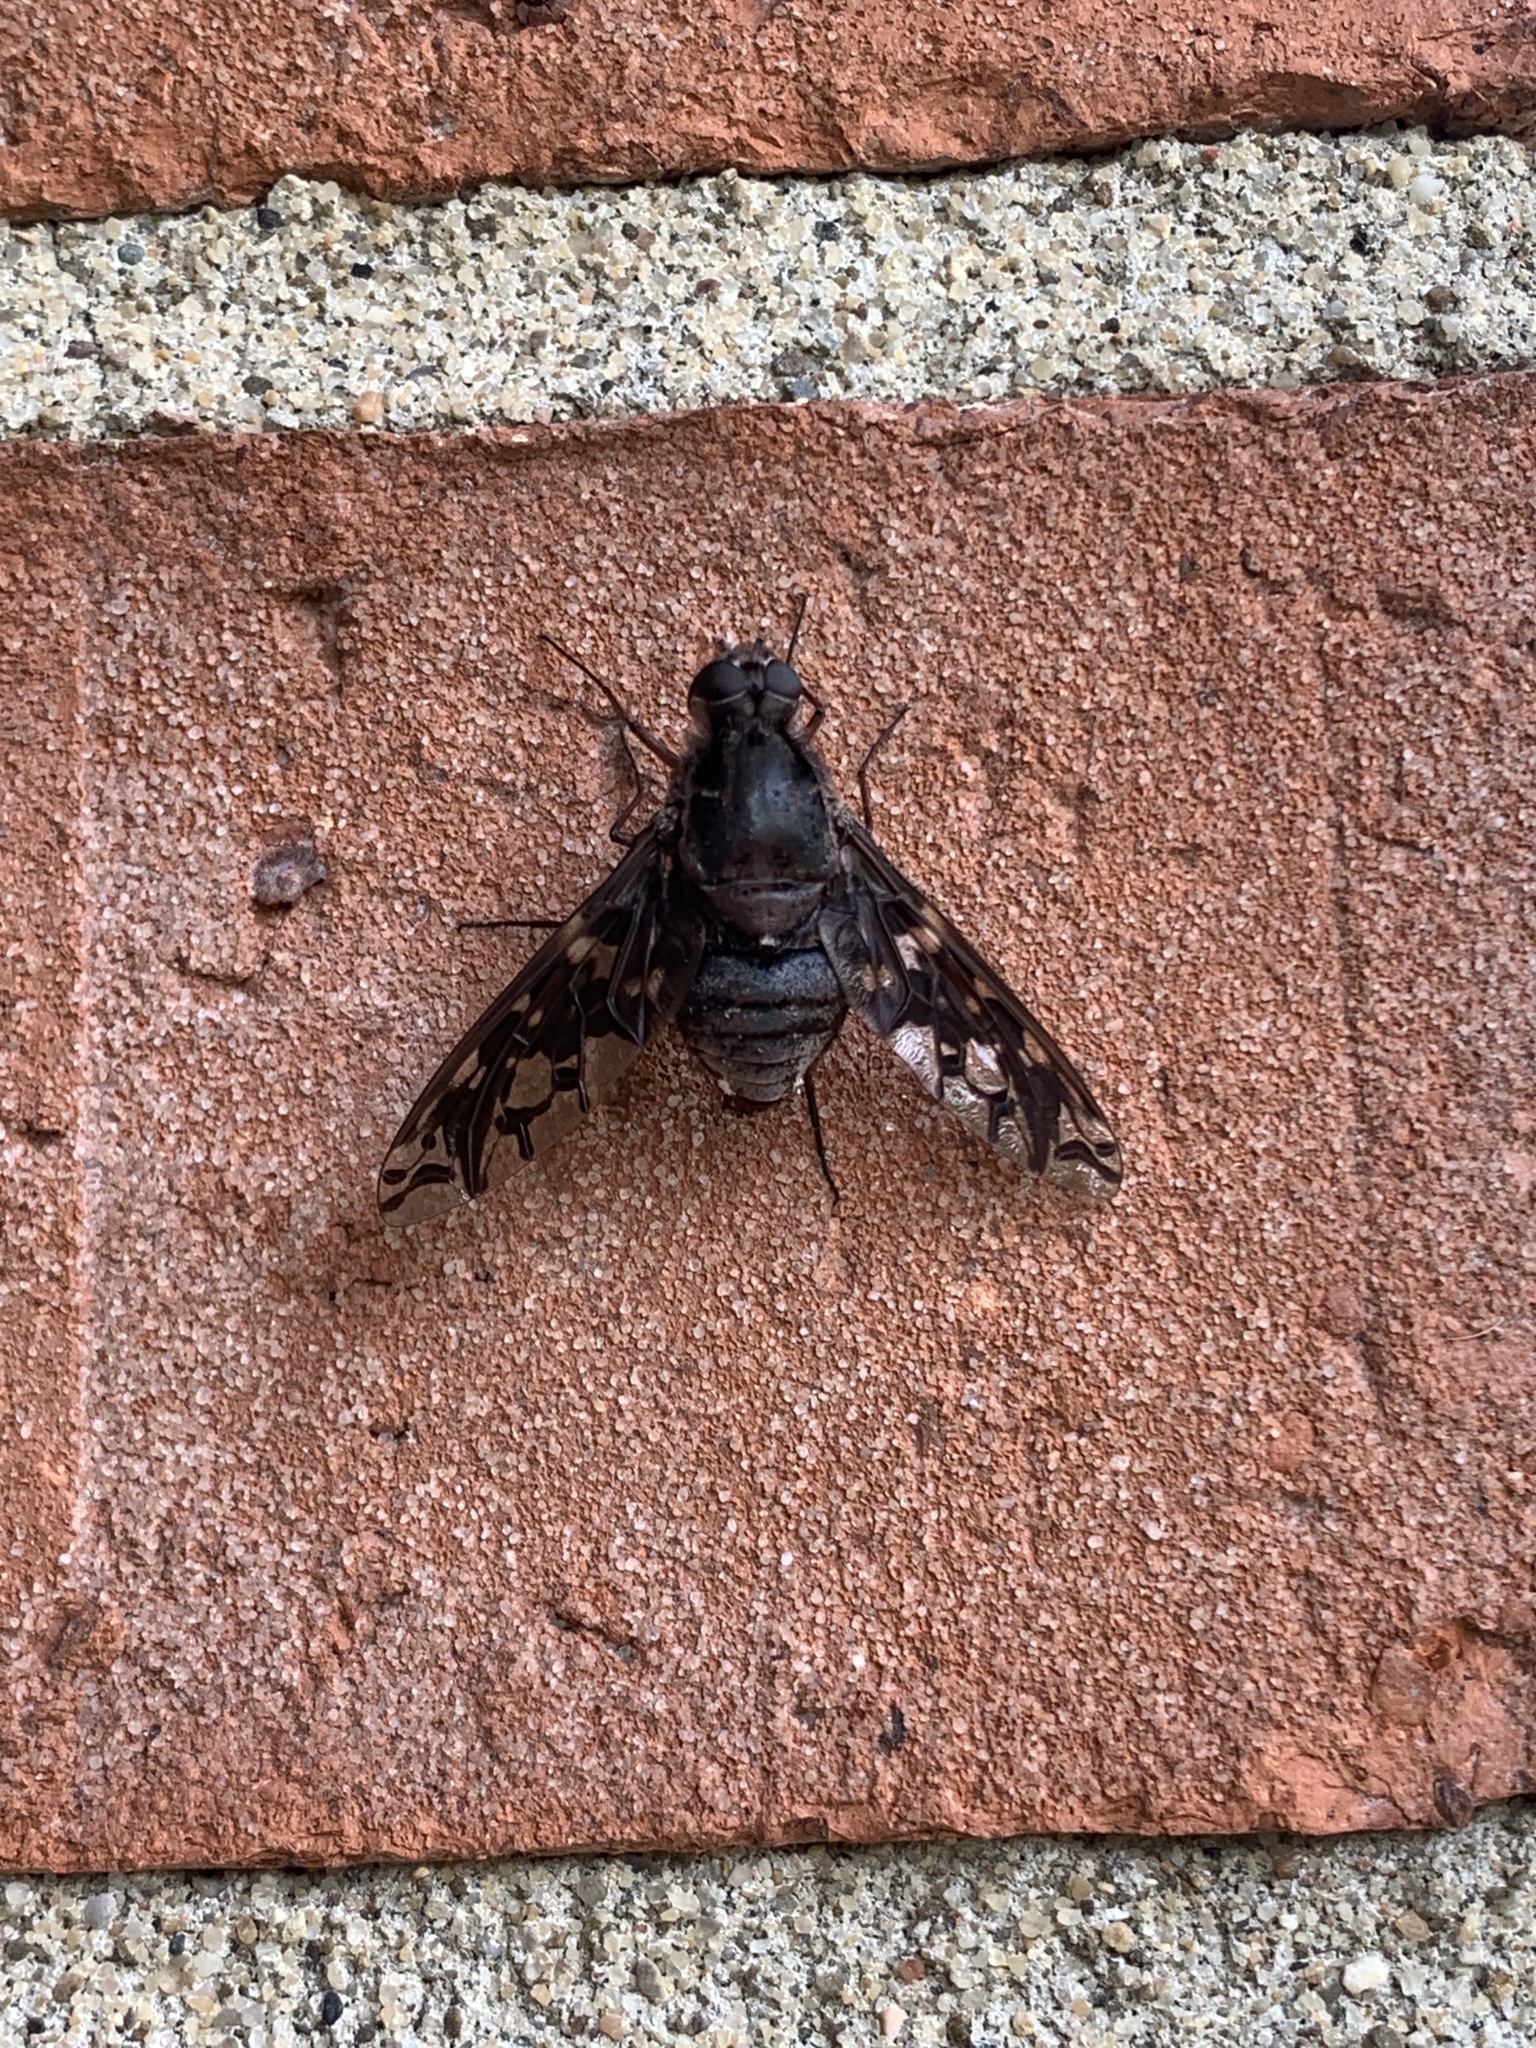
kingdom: Animalia
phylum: Arthropoda
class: Insecta
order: Diptera
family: Bombyliidae
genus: Xenox
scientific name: Xenox tigrinus
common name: Tiger bee fly
